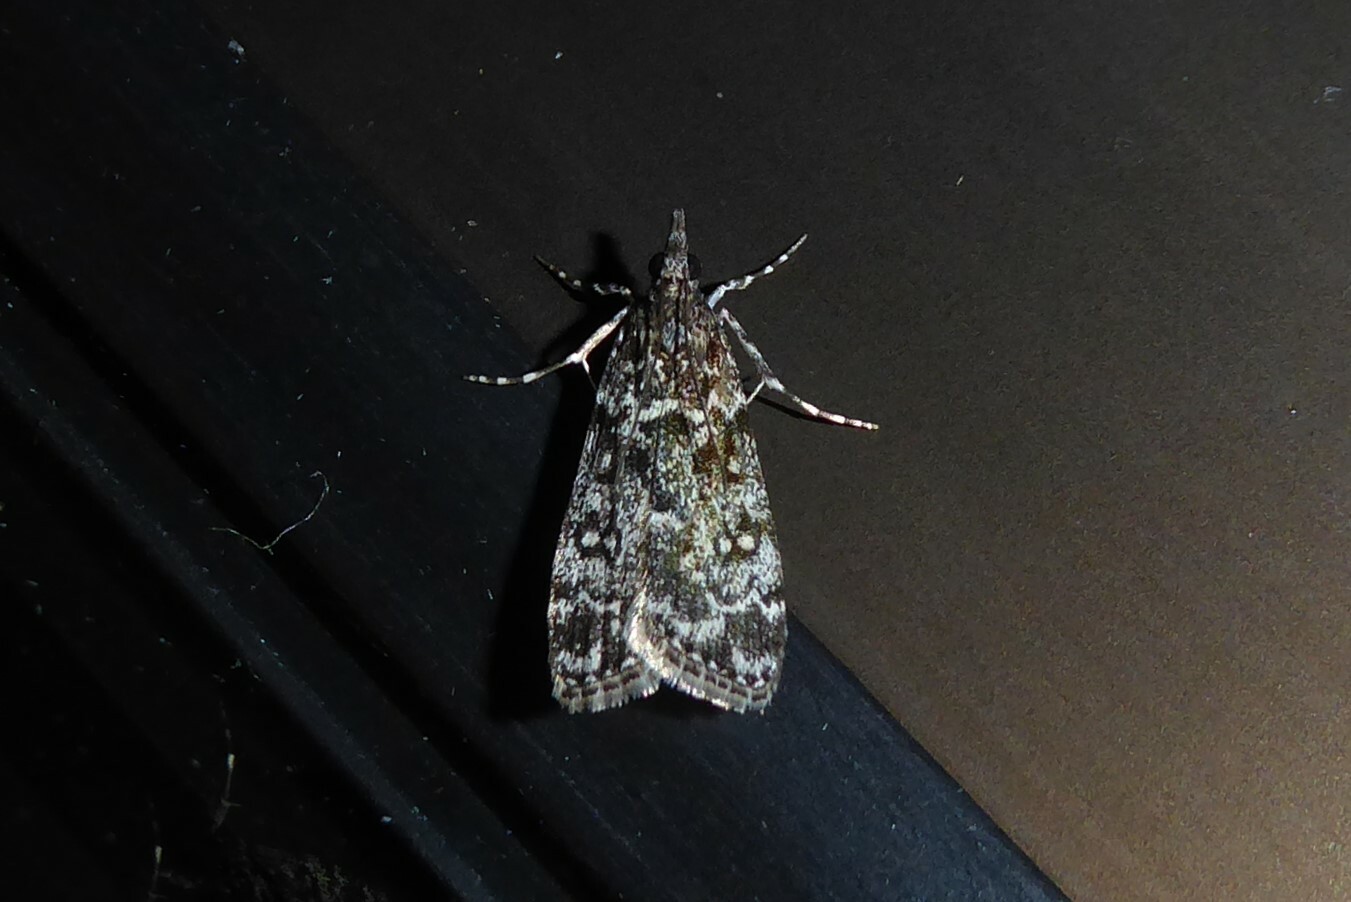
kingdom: Animalia
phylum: Arthropoda
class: Insecta
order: Lepidoptera
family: Crambidae
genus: Eudonia
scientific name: Eudonia philerga
